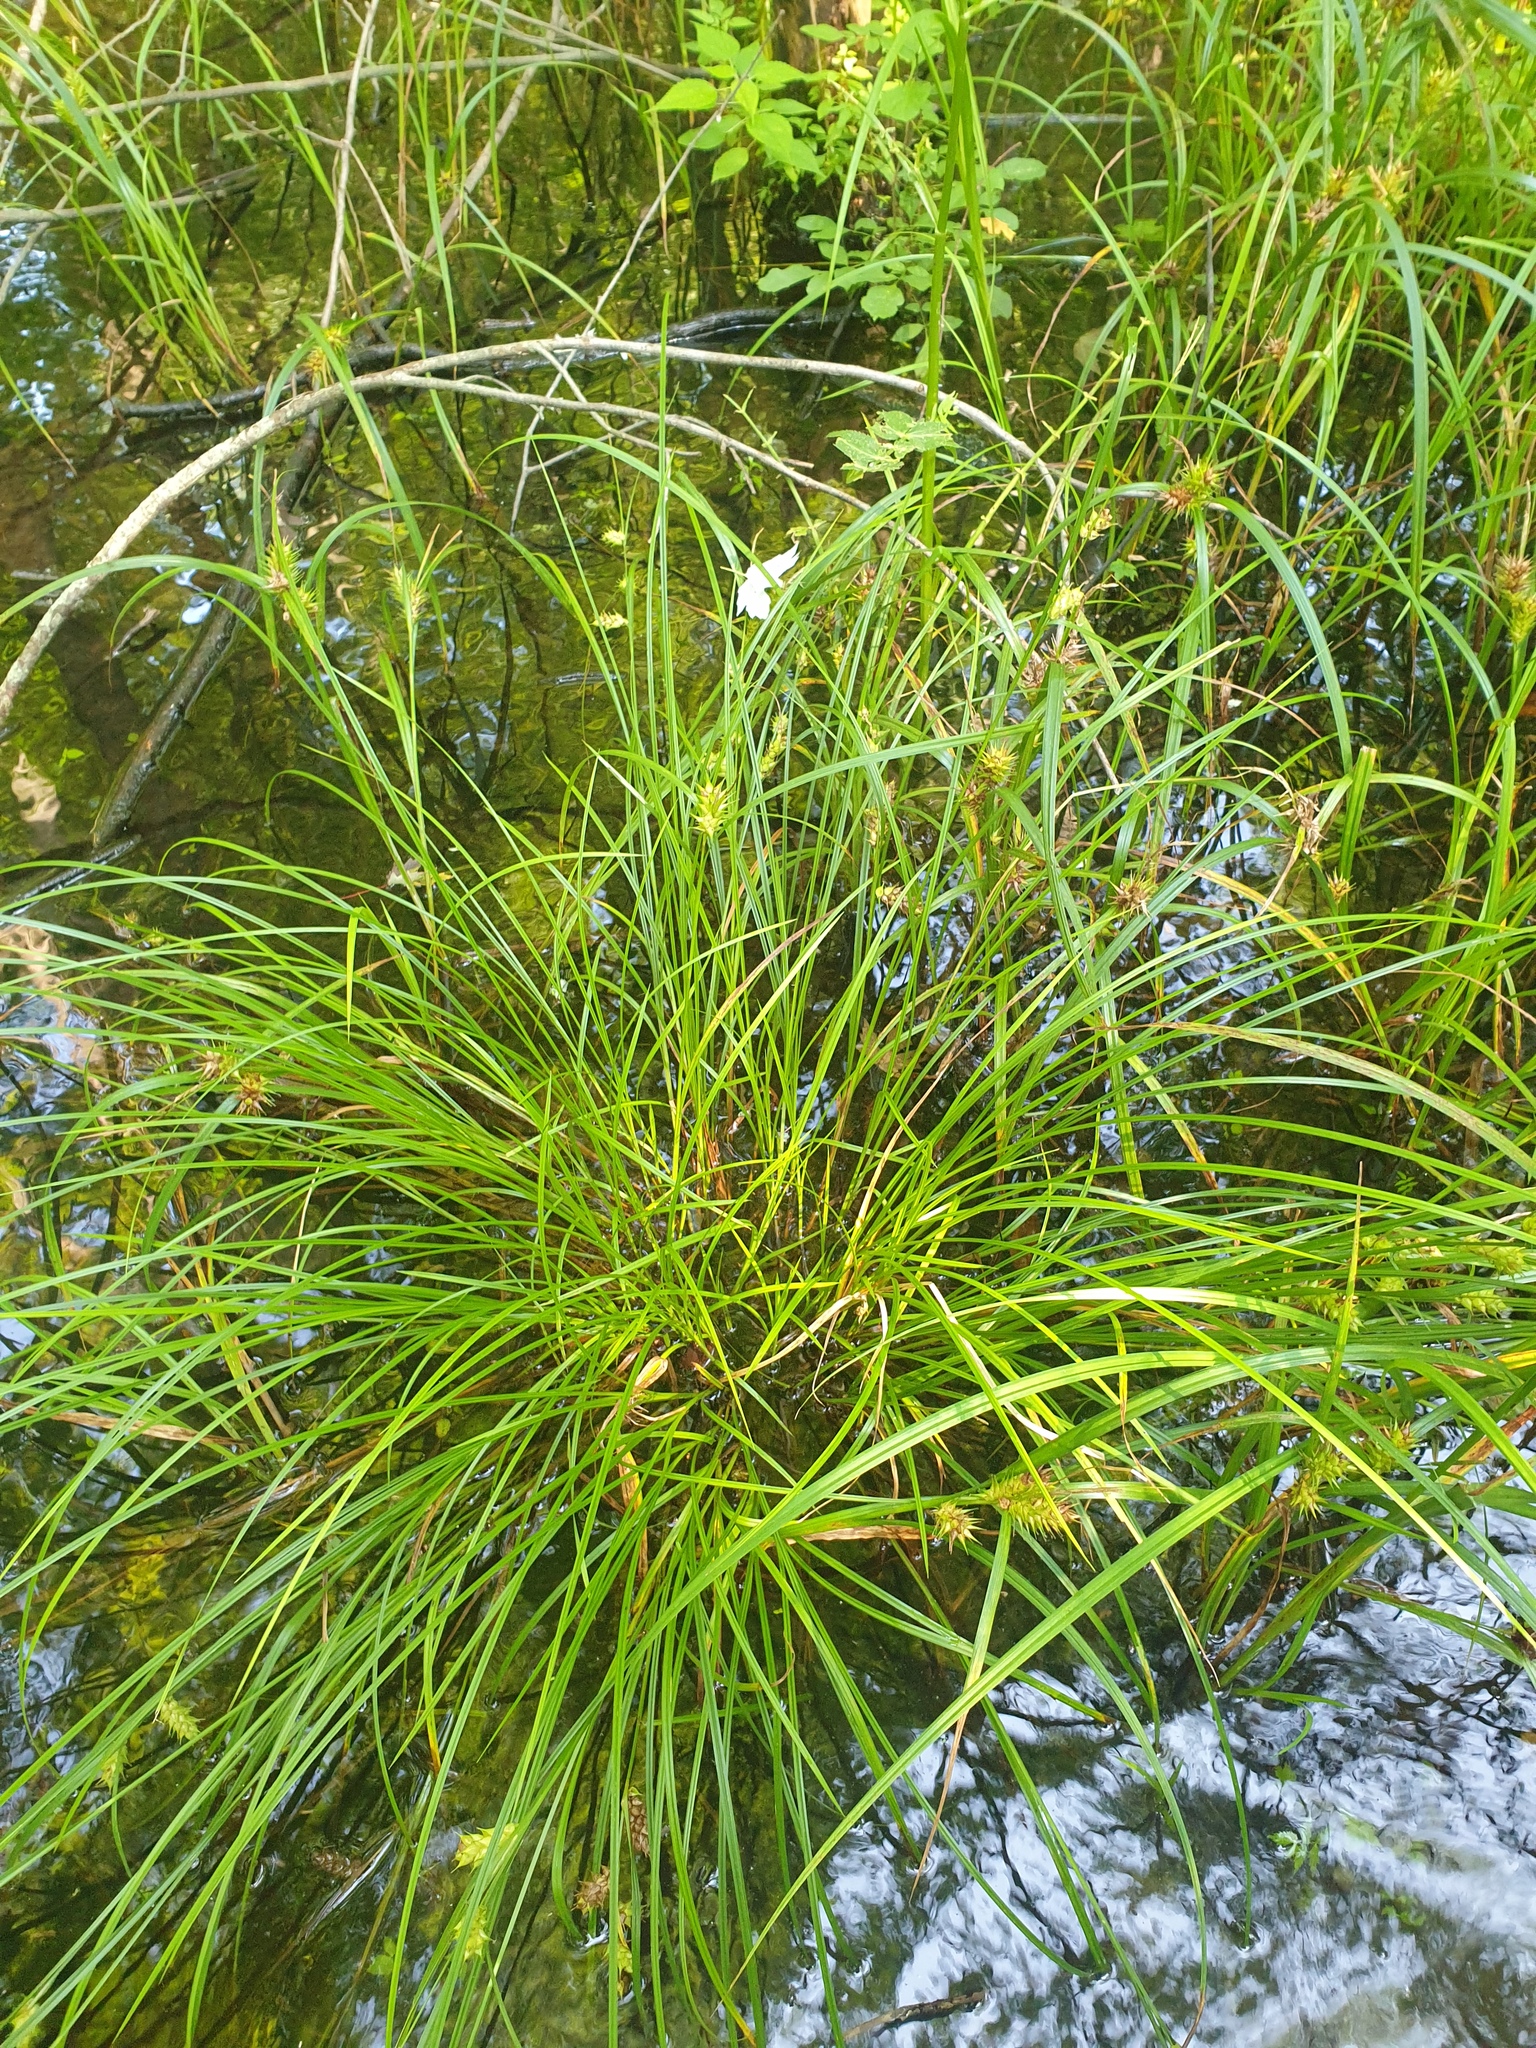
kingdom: Plantae
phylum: Tracheophyta
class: Liliopsida
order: Poales
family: Cyperaceae
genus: Carex
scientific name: Carex tuckermanii
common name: Tuckerman's sedge
